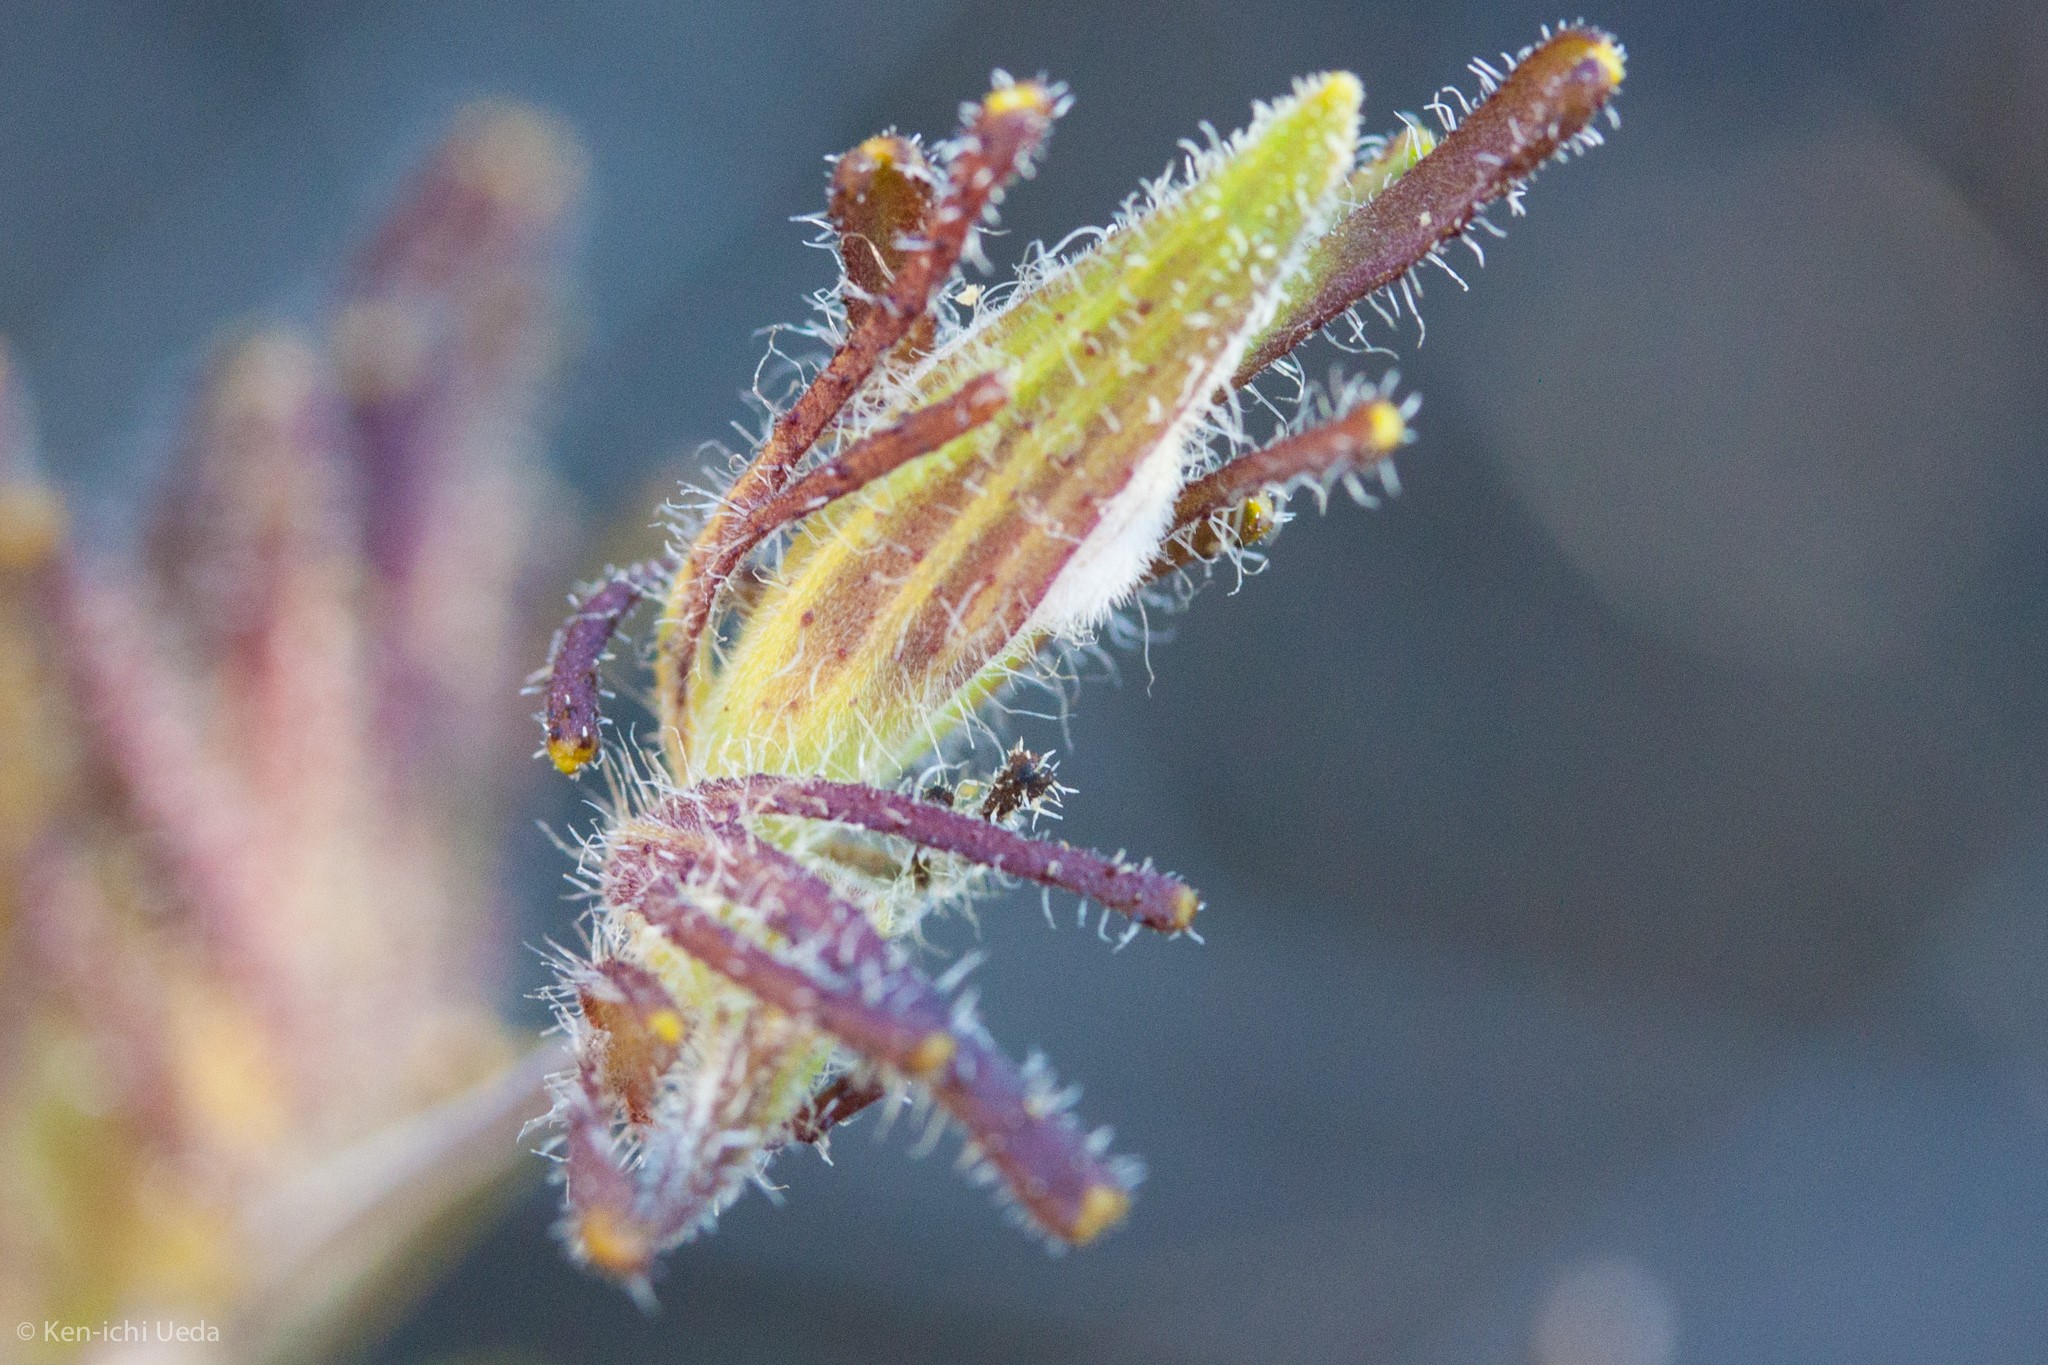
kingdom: Plantae
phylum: Tracheophyta
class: Magnoliopsida
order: Lamiales
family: Orobanchaceae
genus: Cordylanthus
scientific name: Cordylanthus rigidus
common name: Stiff-branch bird's-beak
